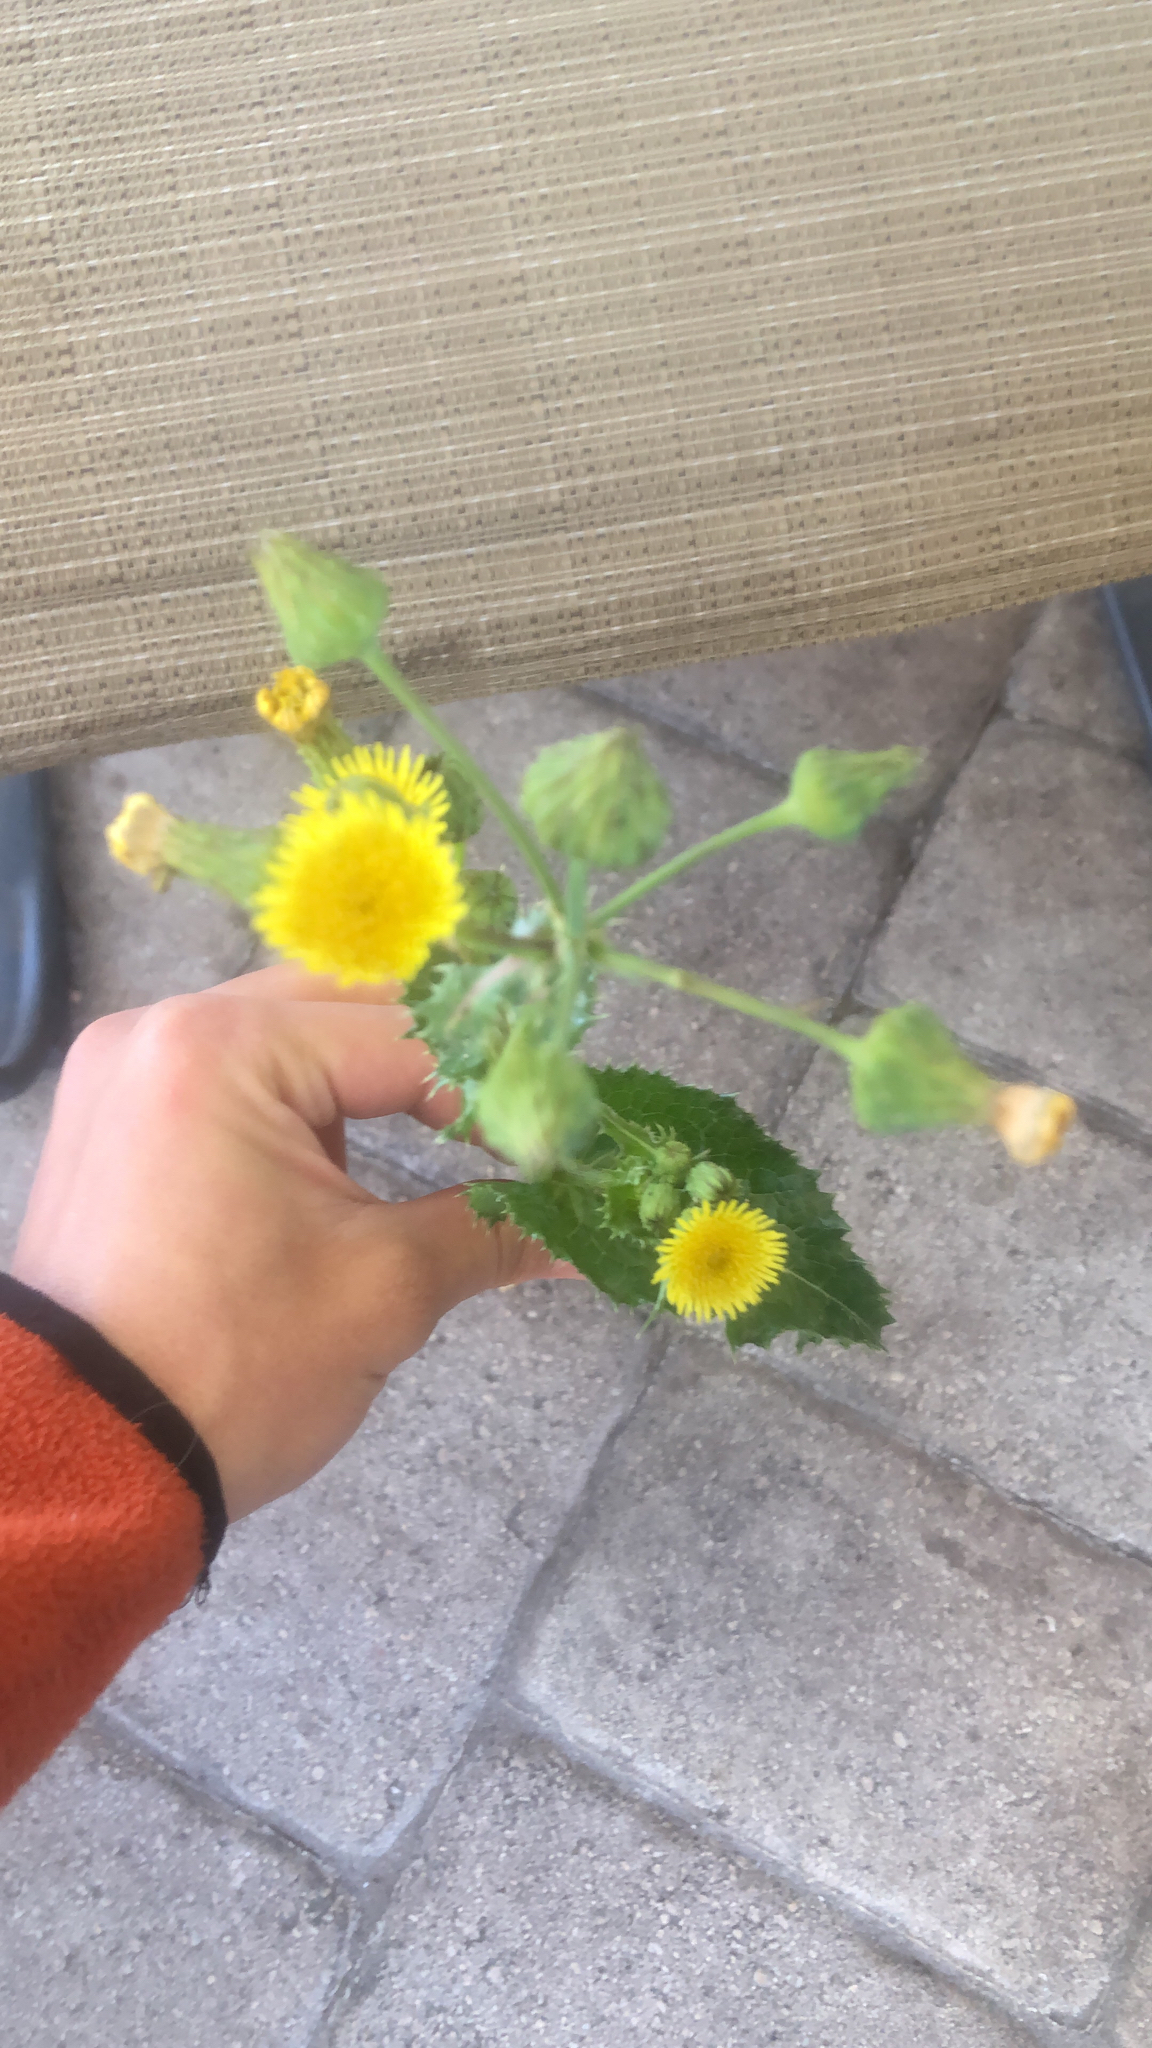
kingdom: Plantae
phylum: Tracheophyta
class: Magnoliopsida
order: Asterales
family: Asteraceae
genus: Sonchus
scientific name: Sonchus asper
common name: Prickly sow-thistle
